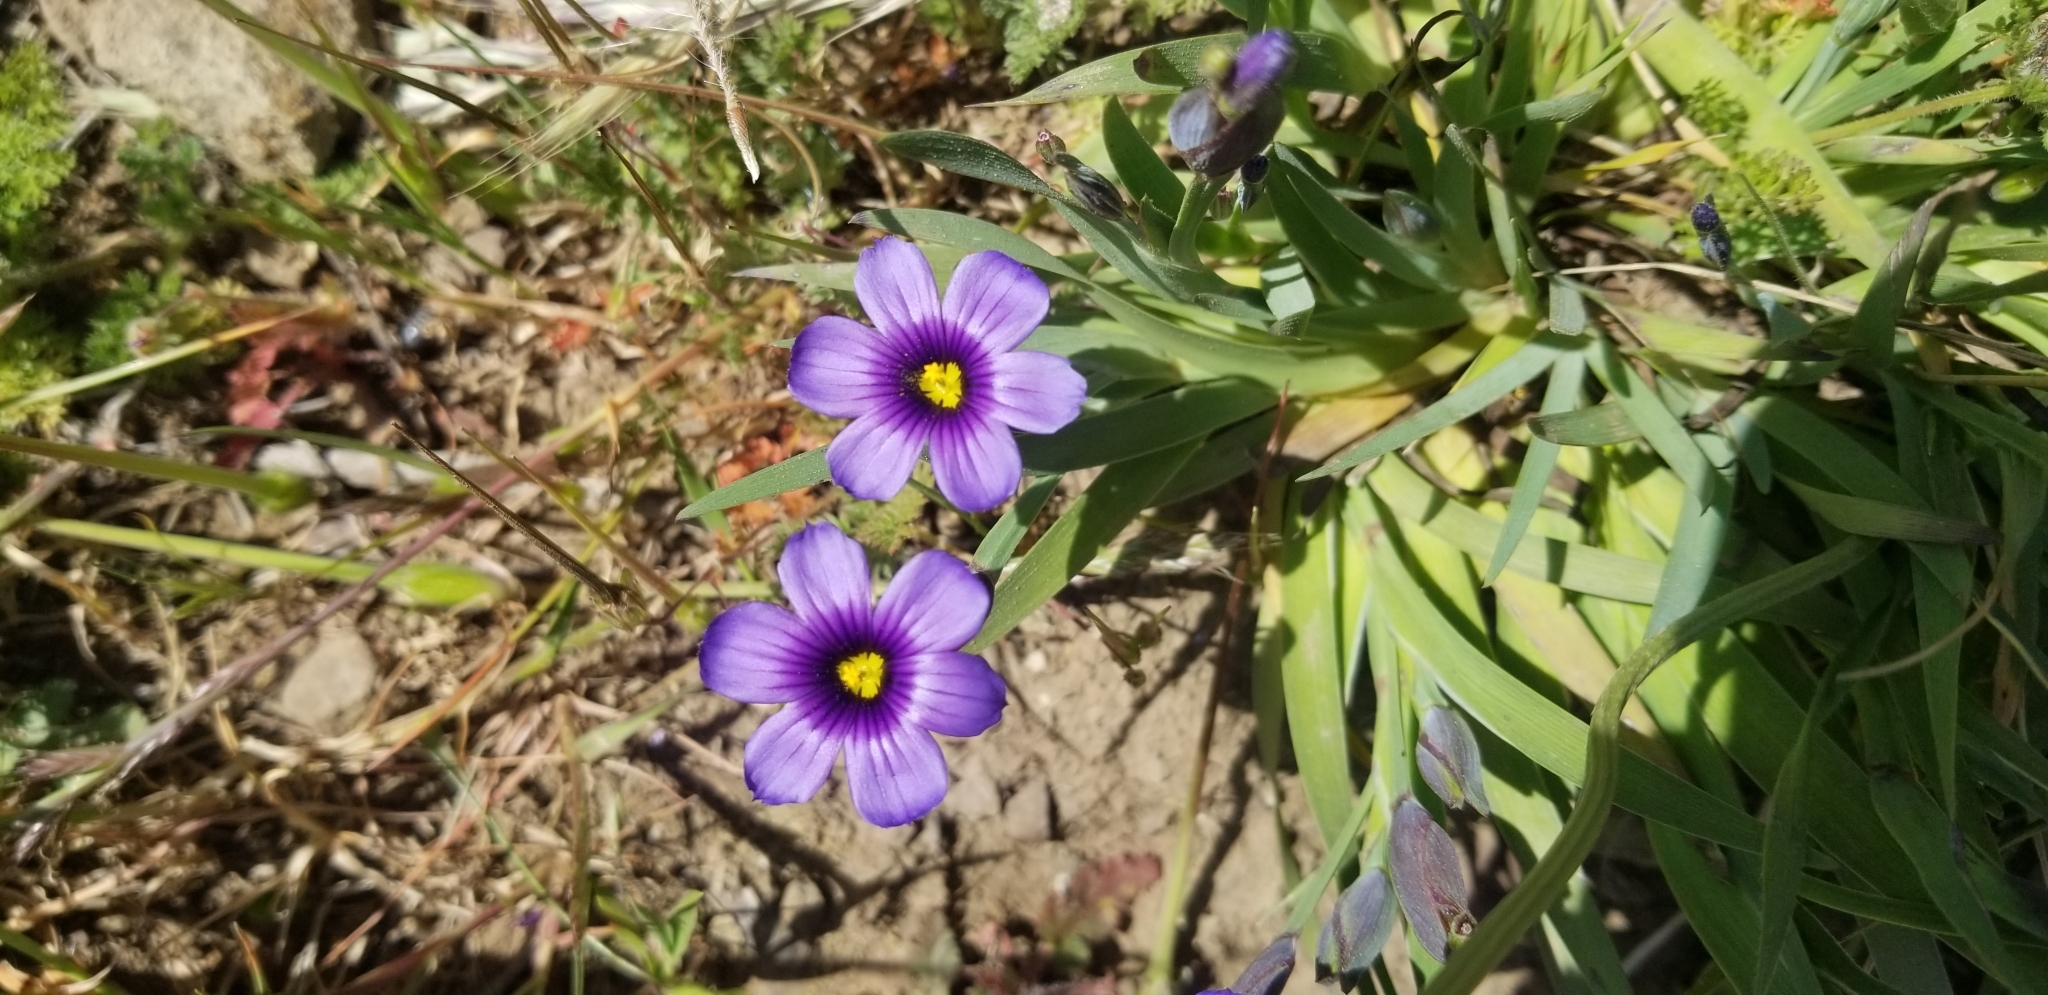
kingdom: Plantae
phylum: Tracheophyta
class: Liliopsida
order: Asparagales
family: Iridaceae
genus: Sisyrinchium
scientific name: Sisyrinchium bellum
